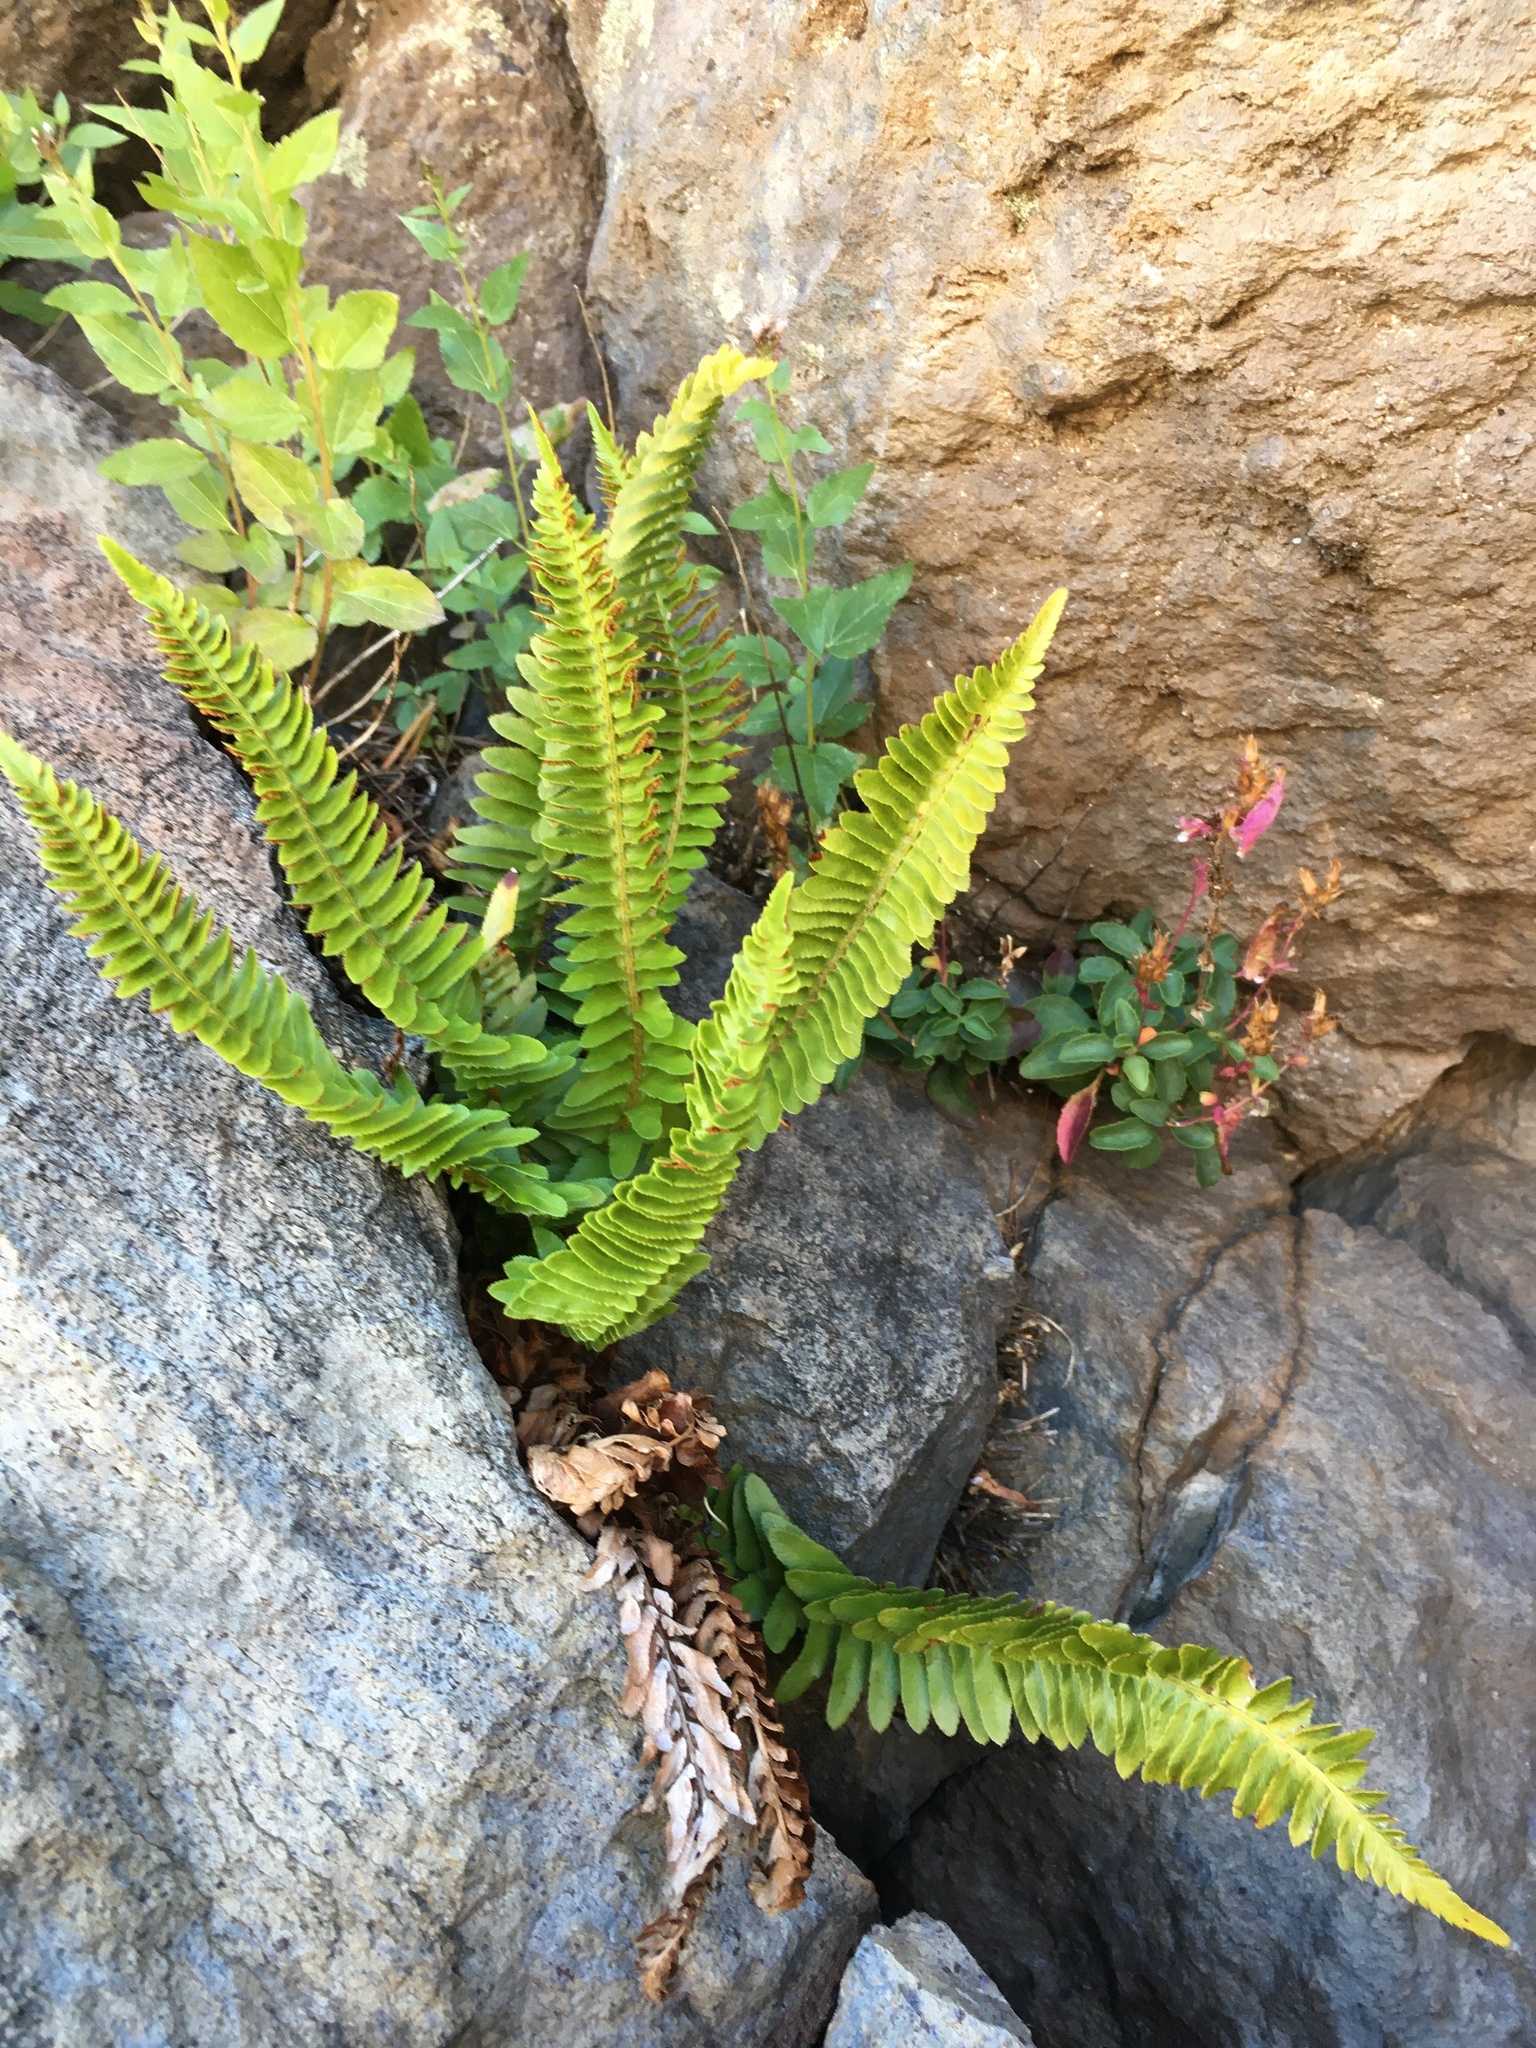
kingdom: Plantae
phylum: Tracheophyta
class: Polypodiopsida
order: Polypodiales
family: Dryopteridaceae
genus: Polystichum
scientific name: Polystichum imbricans
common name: Dwarf western sword fern
